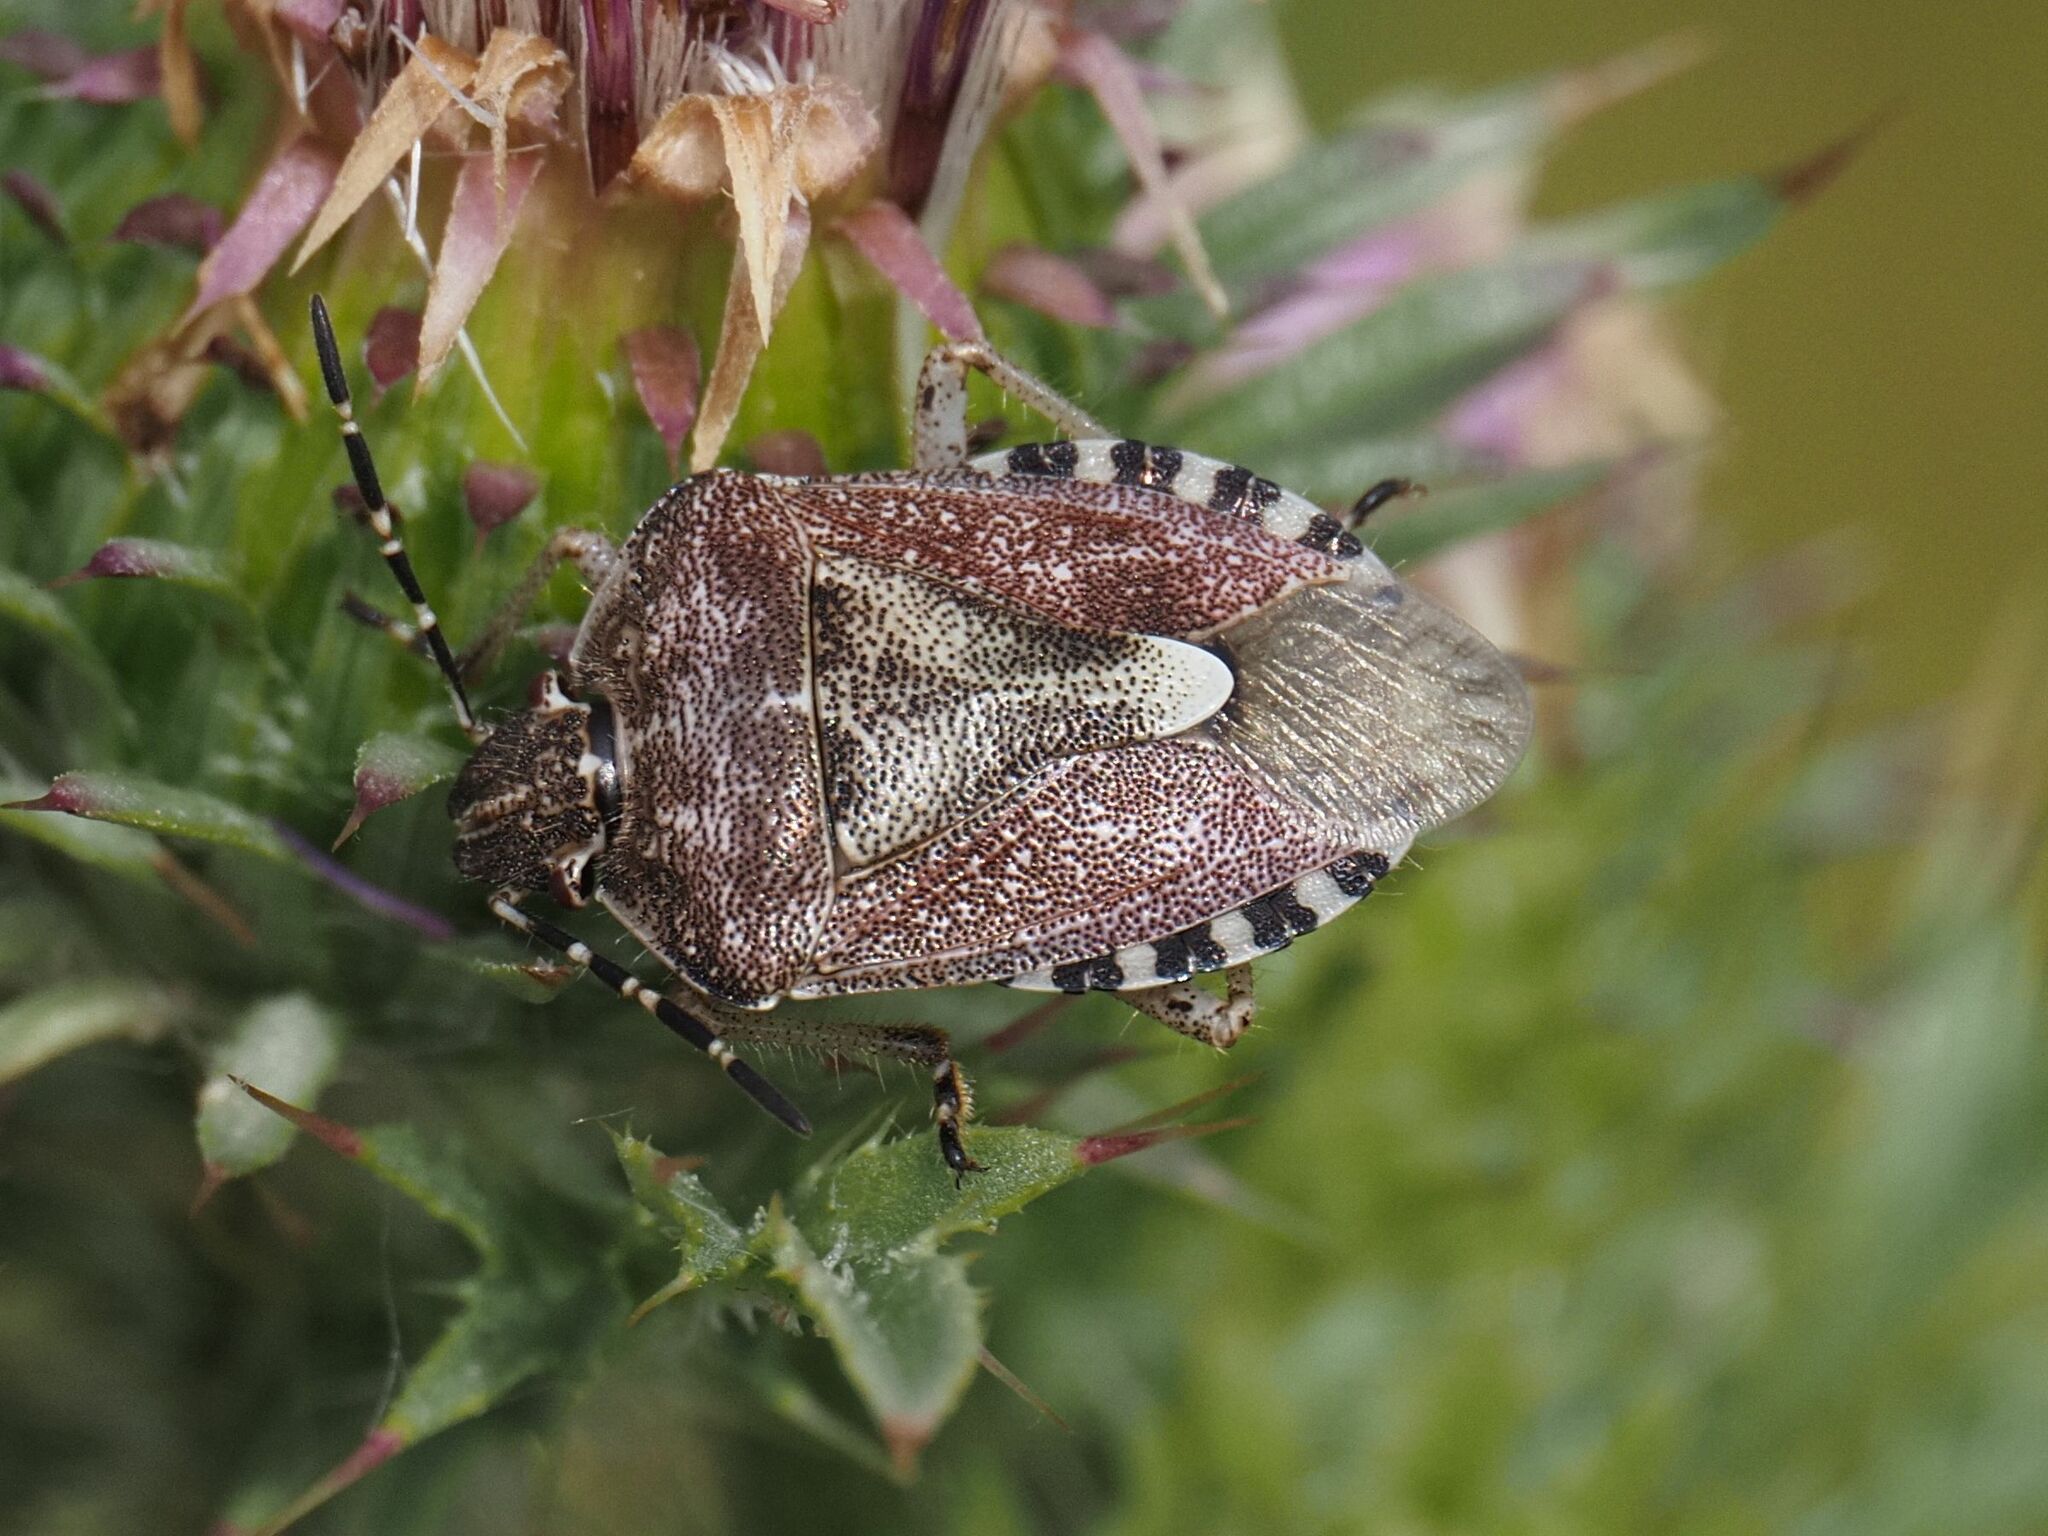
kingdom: Animalia
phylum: Arthropoda
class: Insecta
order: Hemiptera
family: Pentatomidae
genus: Dolycoris
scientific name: Dolycoris baccarum
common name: Sloe bug
